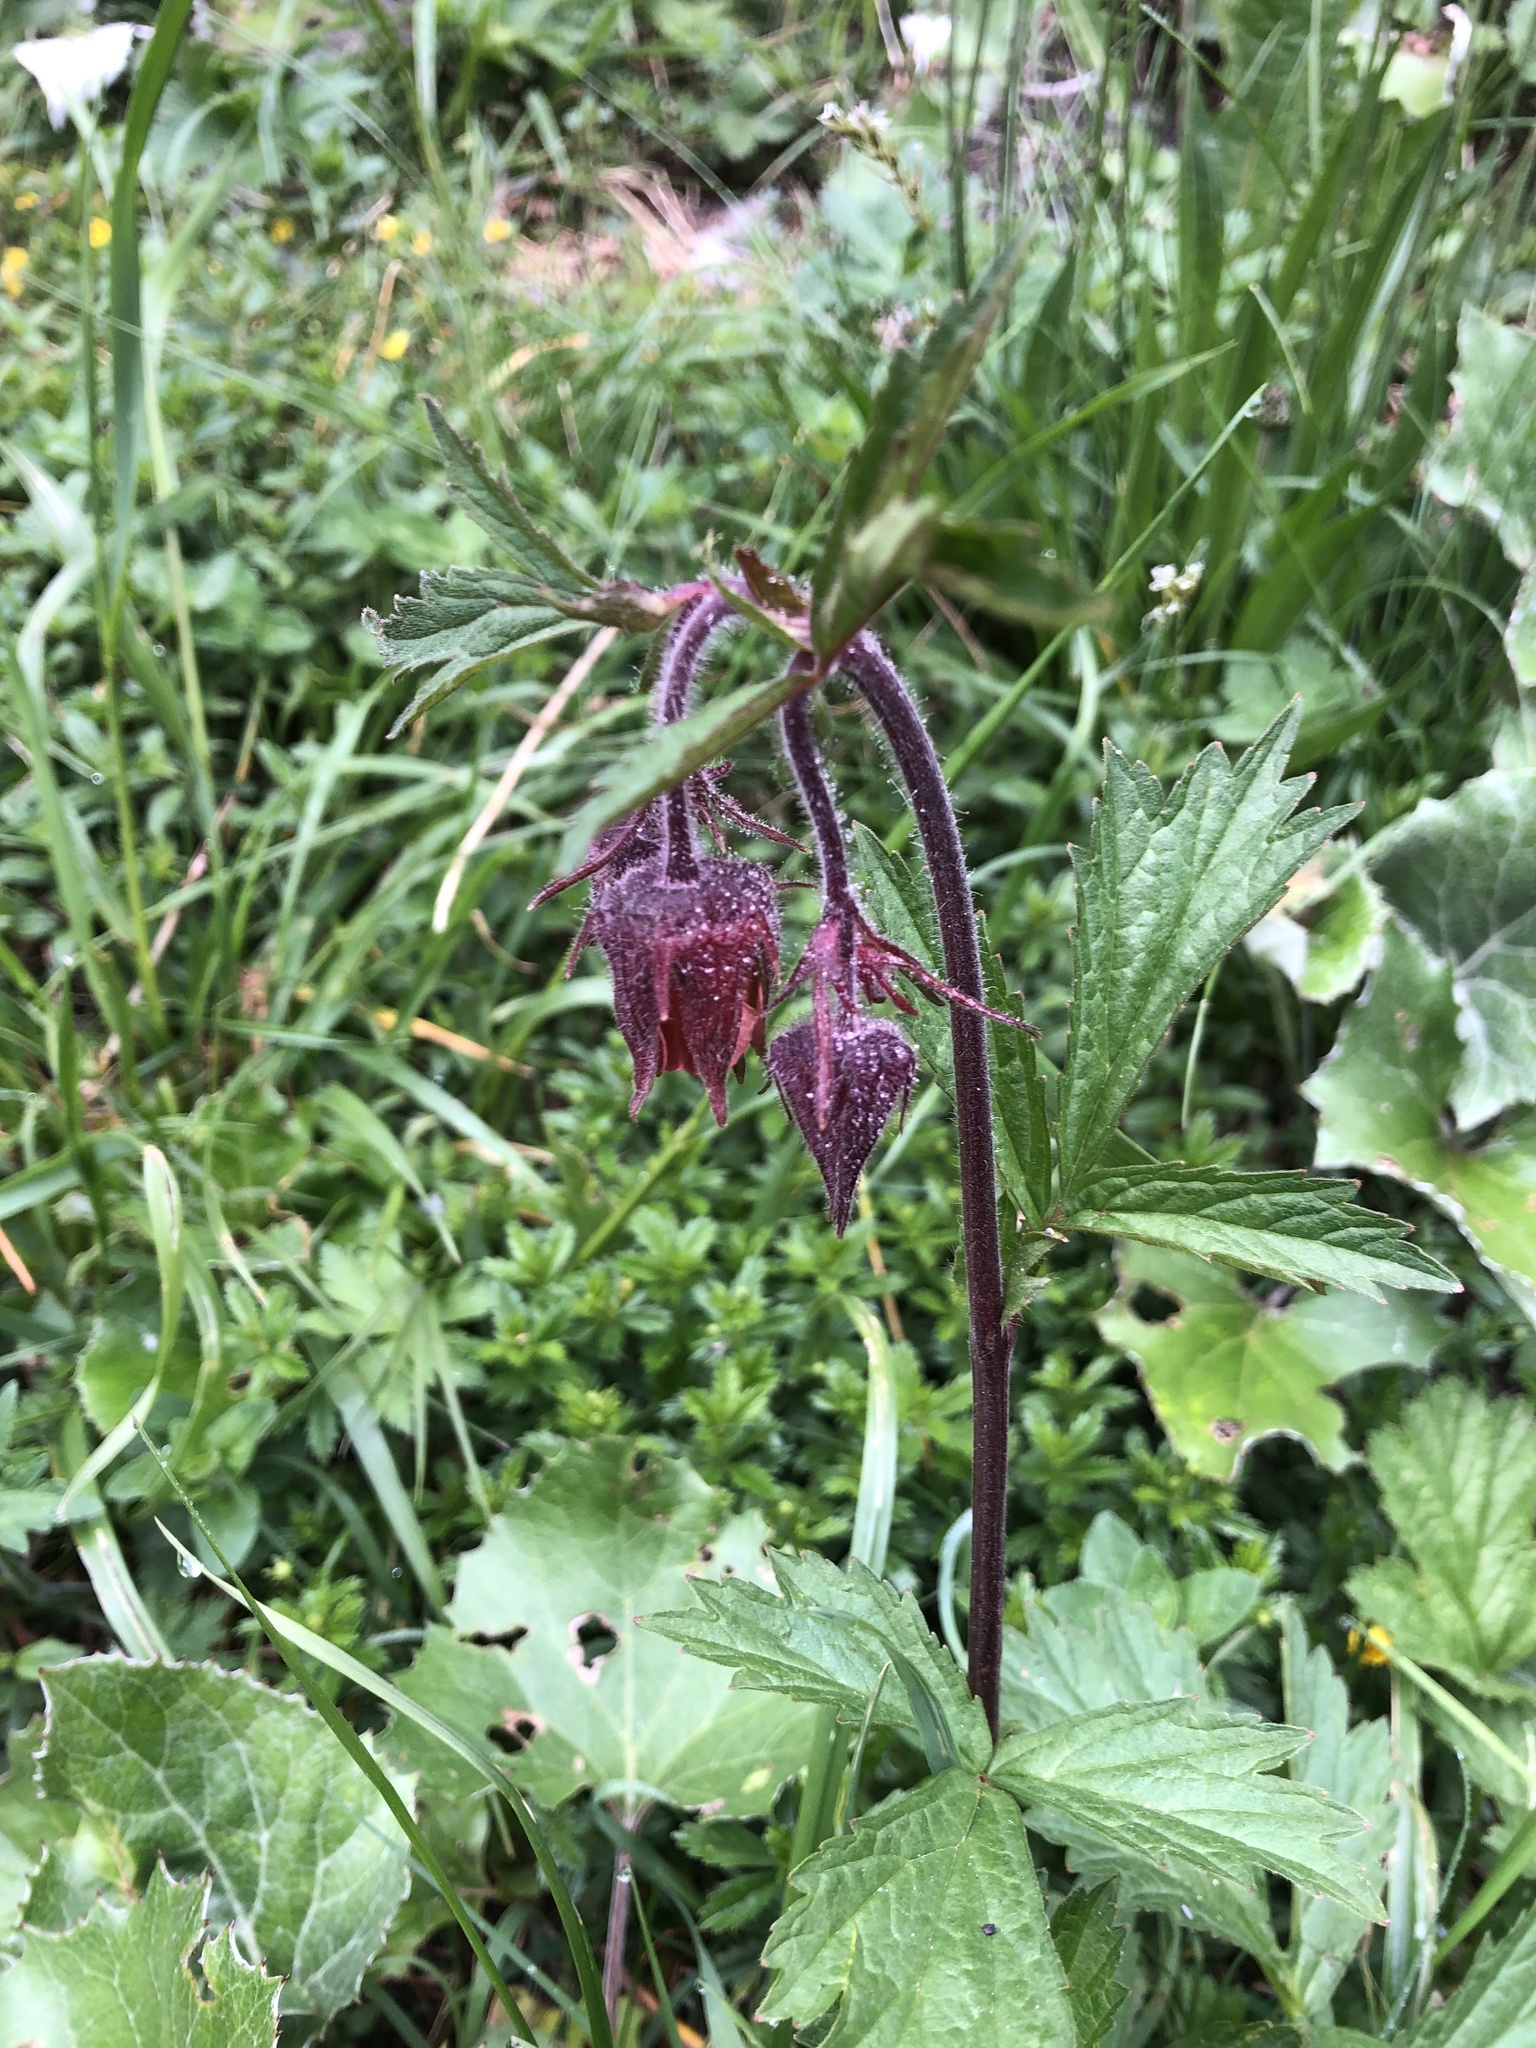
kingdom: Plantae
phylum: Tracheophyta
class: Magnoliopsida
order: Rosales
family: Rosaceae
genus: Geum
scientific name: Geum rivale
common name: Water avens
